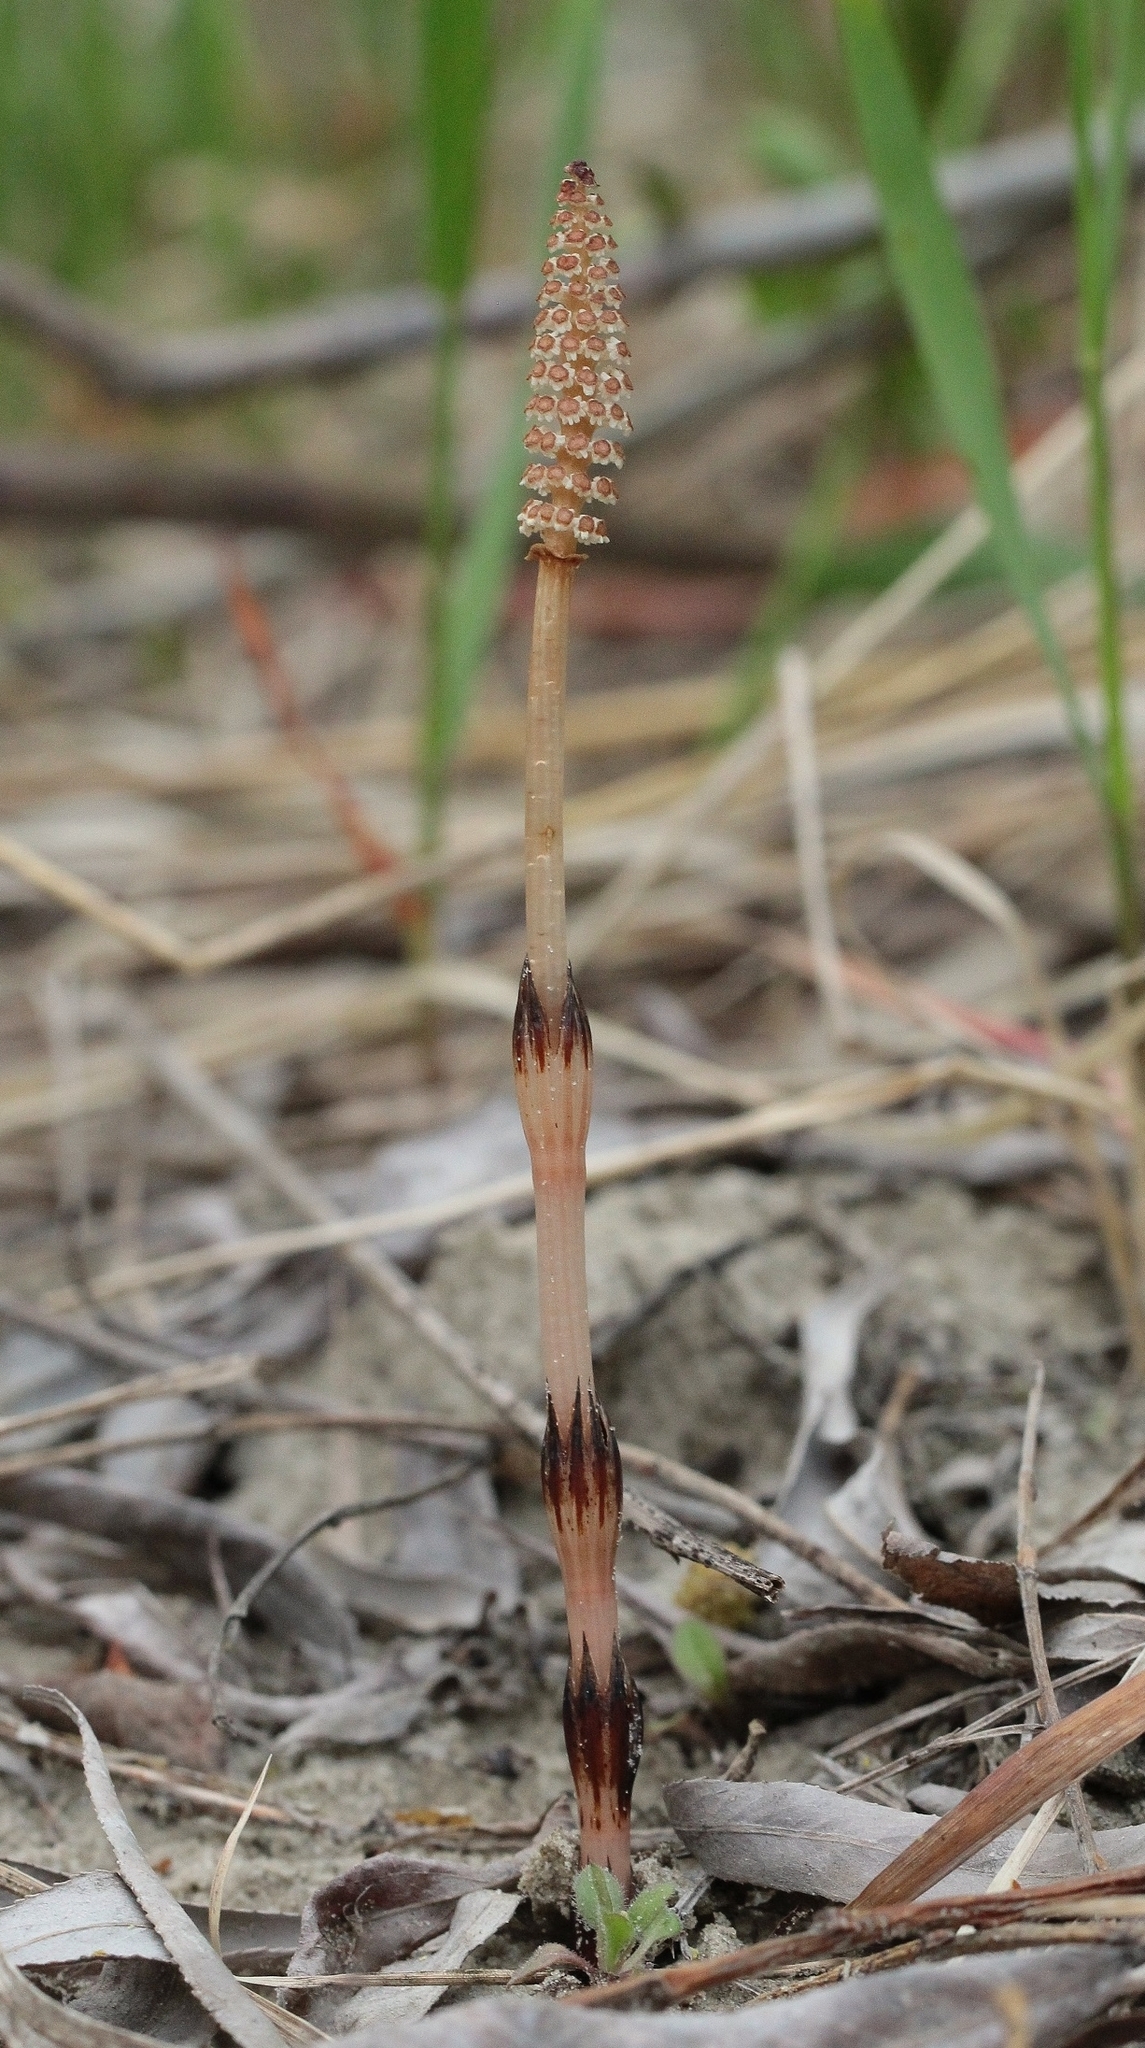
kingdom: Plantae
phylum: Tracheophyta
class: Polypodiopsida
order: Equisetales
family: Equisetaceae
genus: Equisetum
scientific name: Equisetum arvense
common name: Field horsetail
